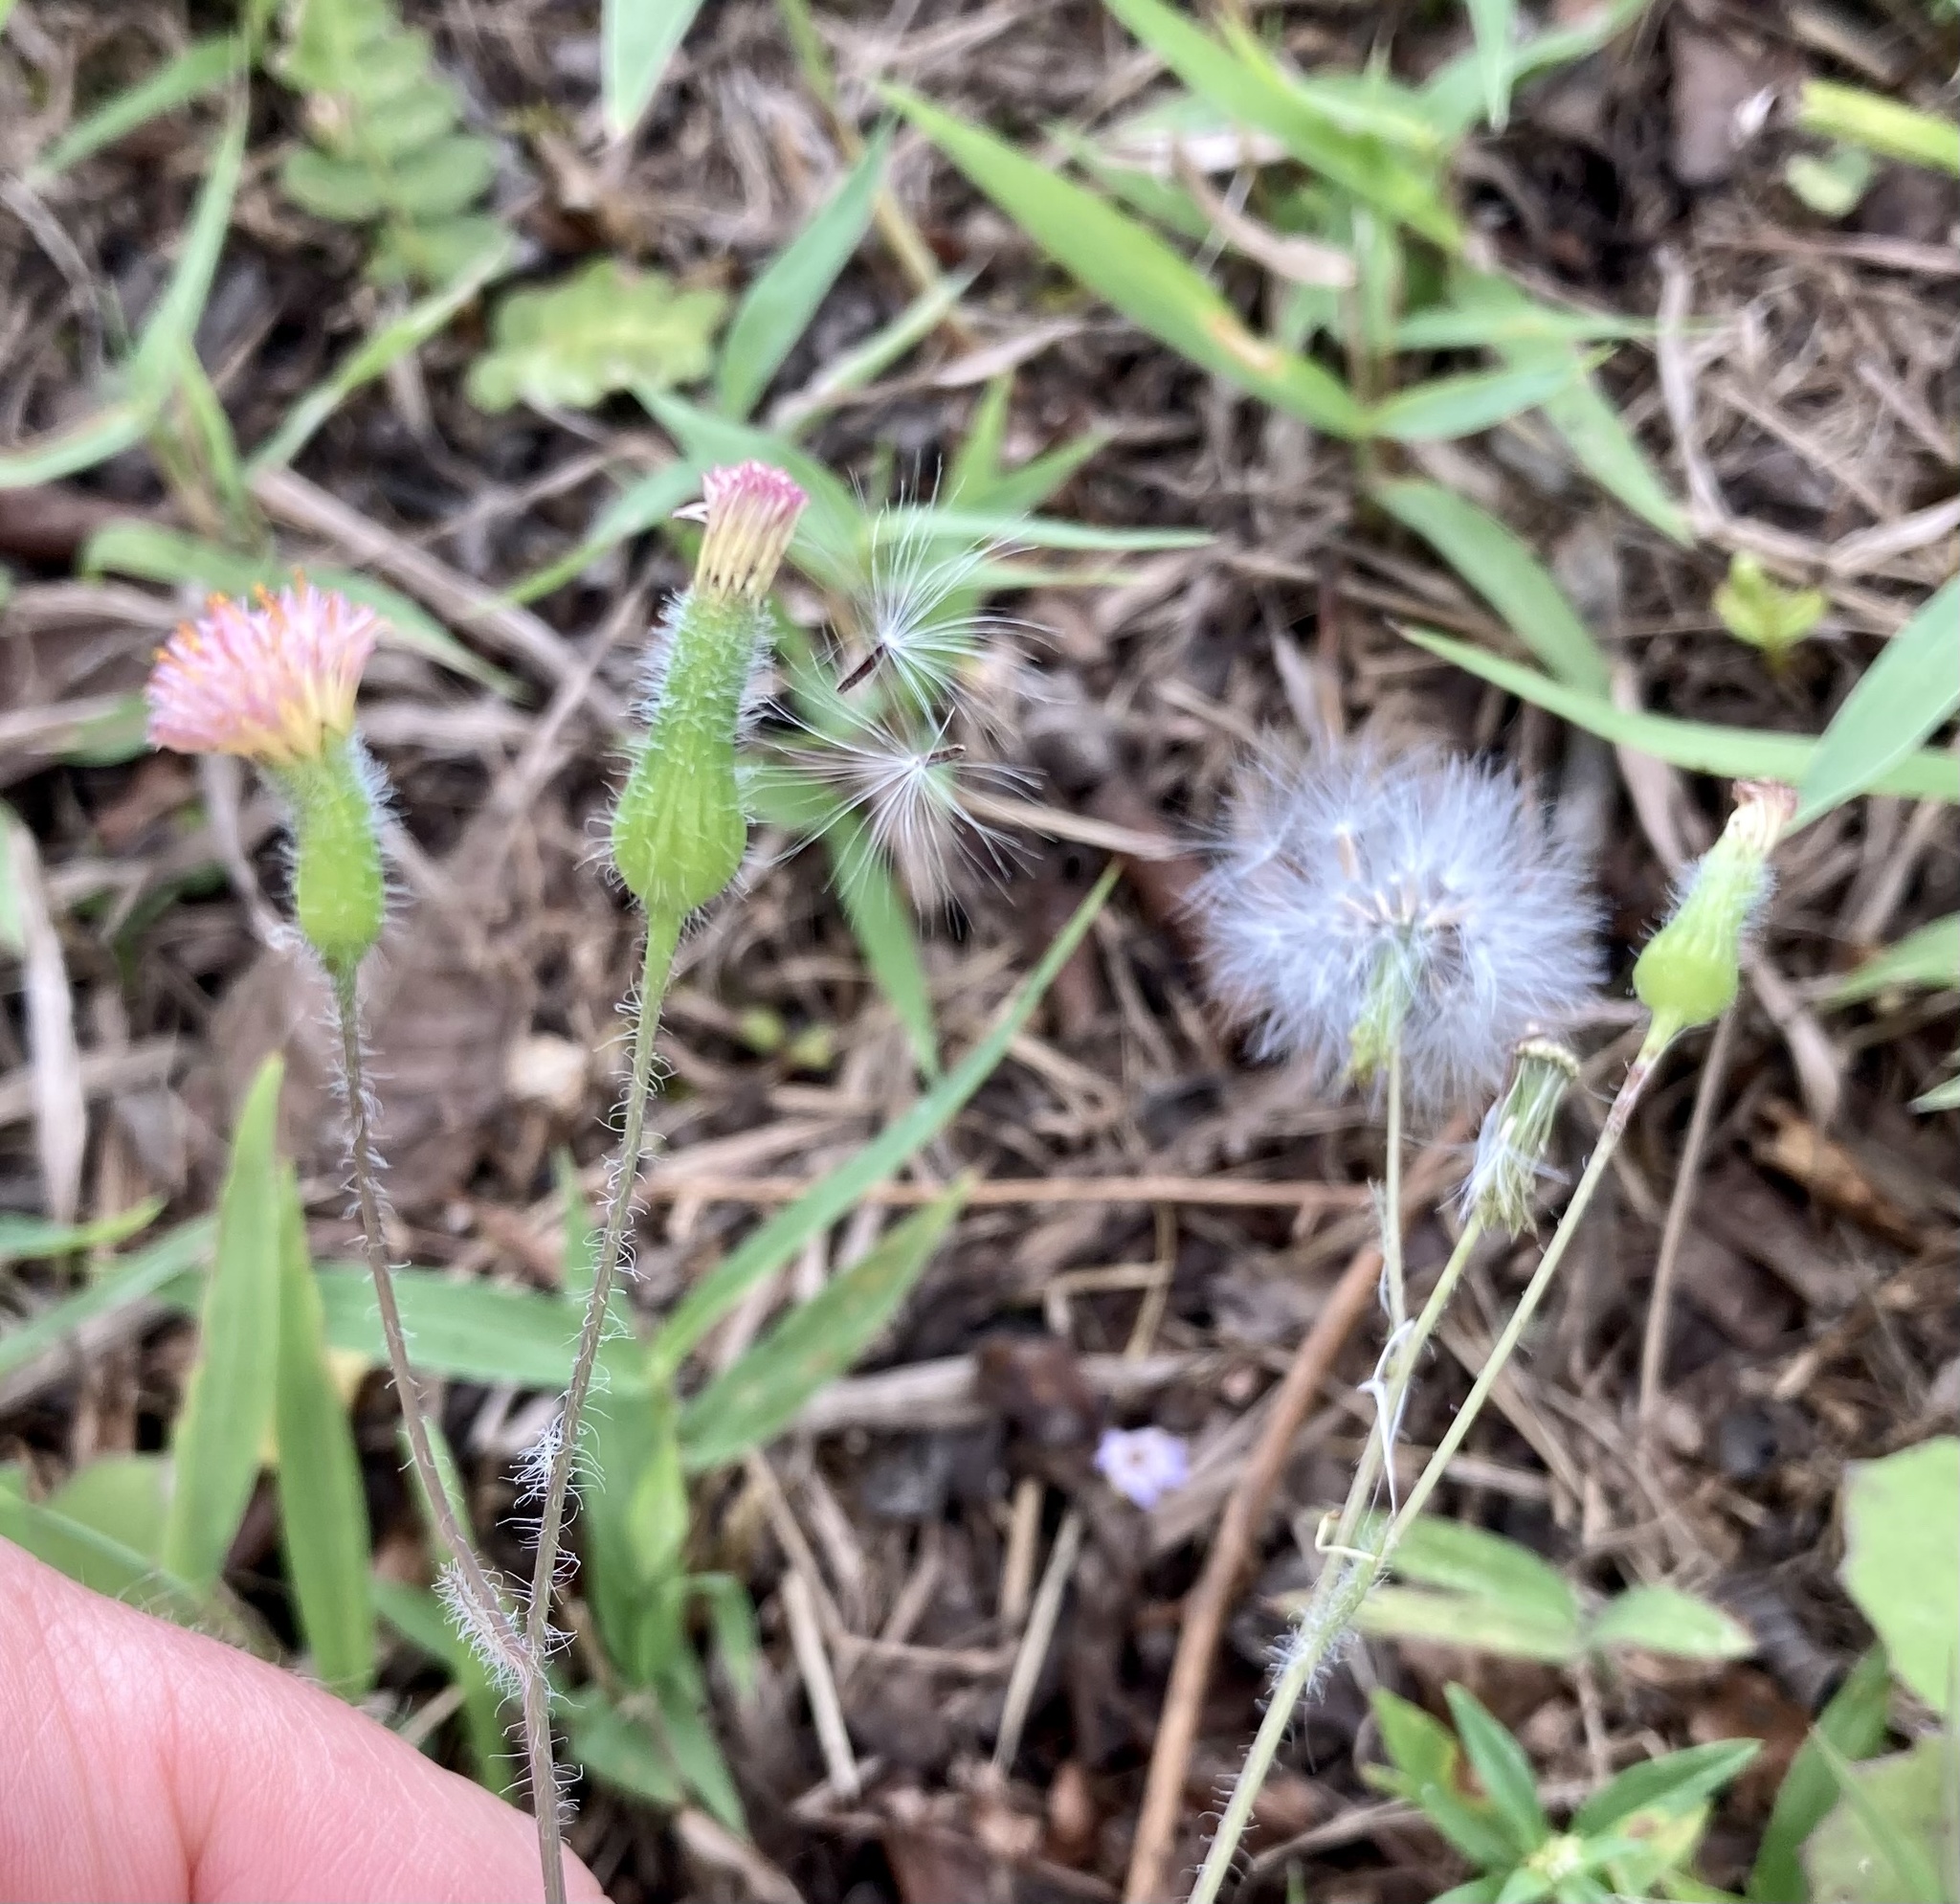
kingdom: Plantae
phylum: Tracheophyta
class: Magnoliopsida
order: Asterales
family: Asteraceae
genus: Emilia
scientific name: Emilia sonchifolia
